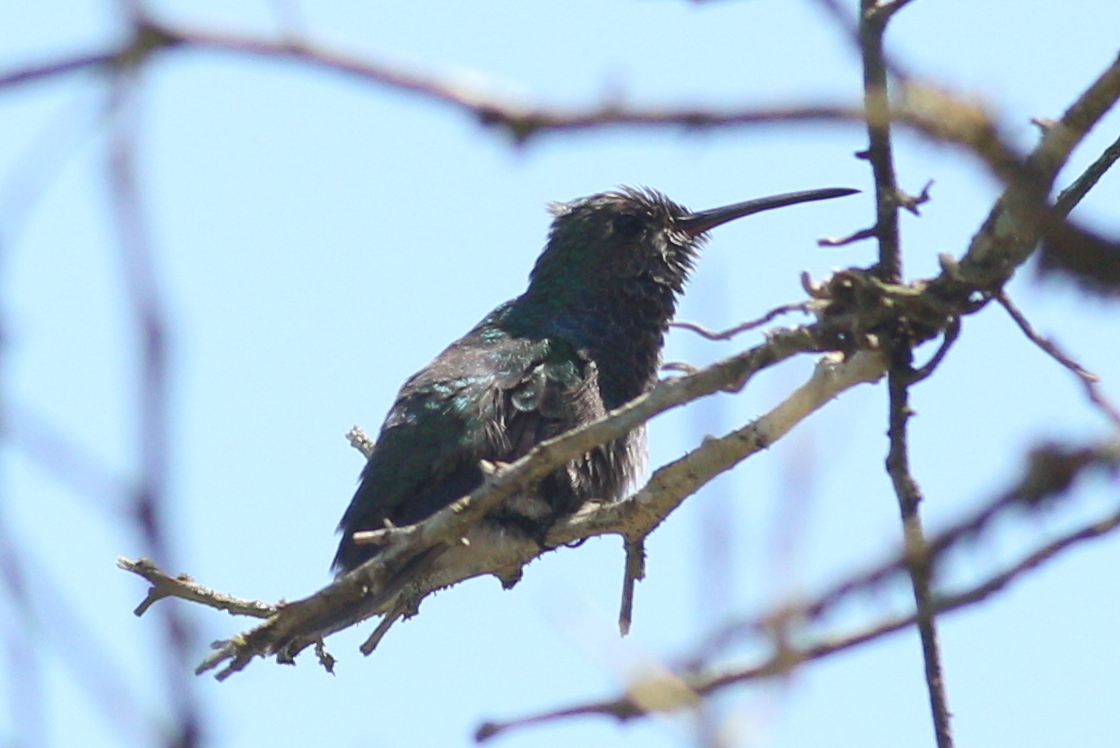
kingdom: Animalia
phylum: Chordata
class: Aves
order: Apodiformes
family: Trochilidae
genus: Chionomesa
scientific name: Chionomesa lactea
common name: Sapphire-spangled emerald
